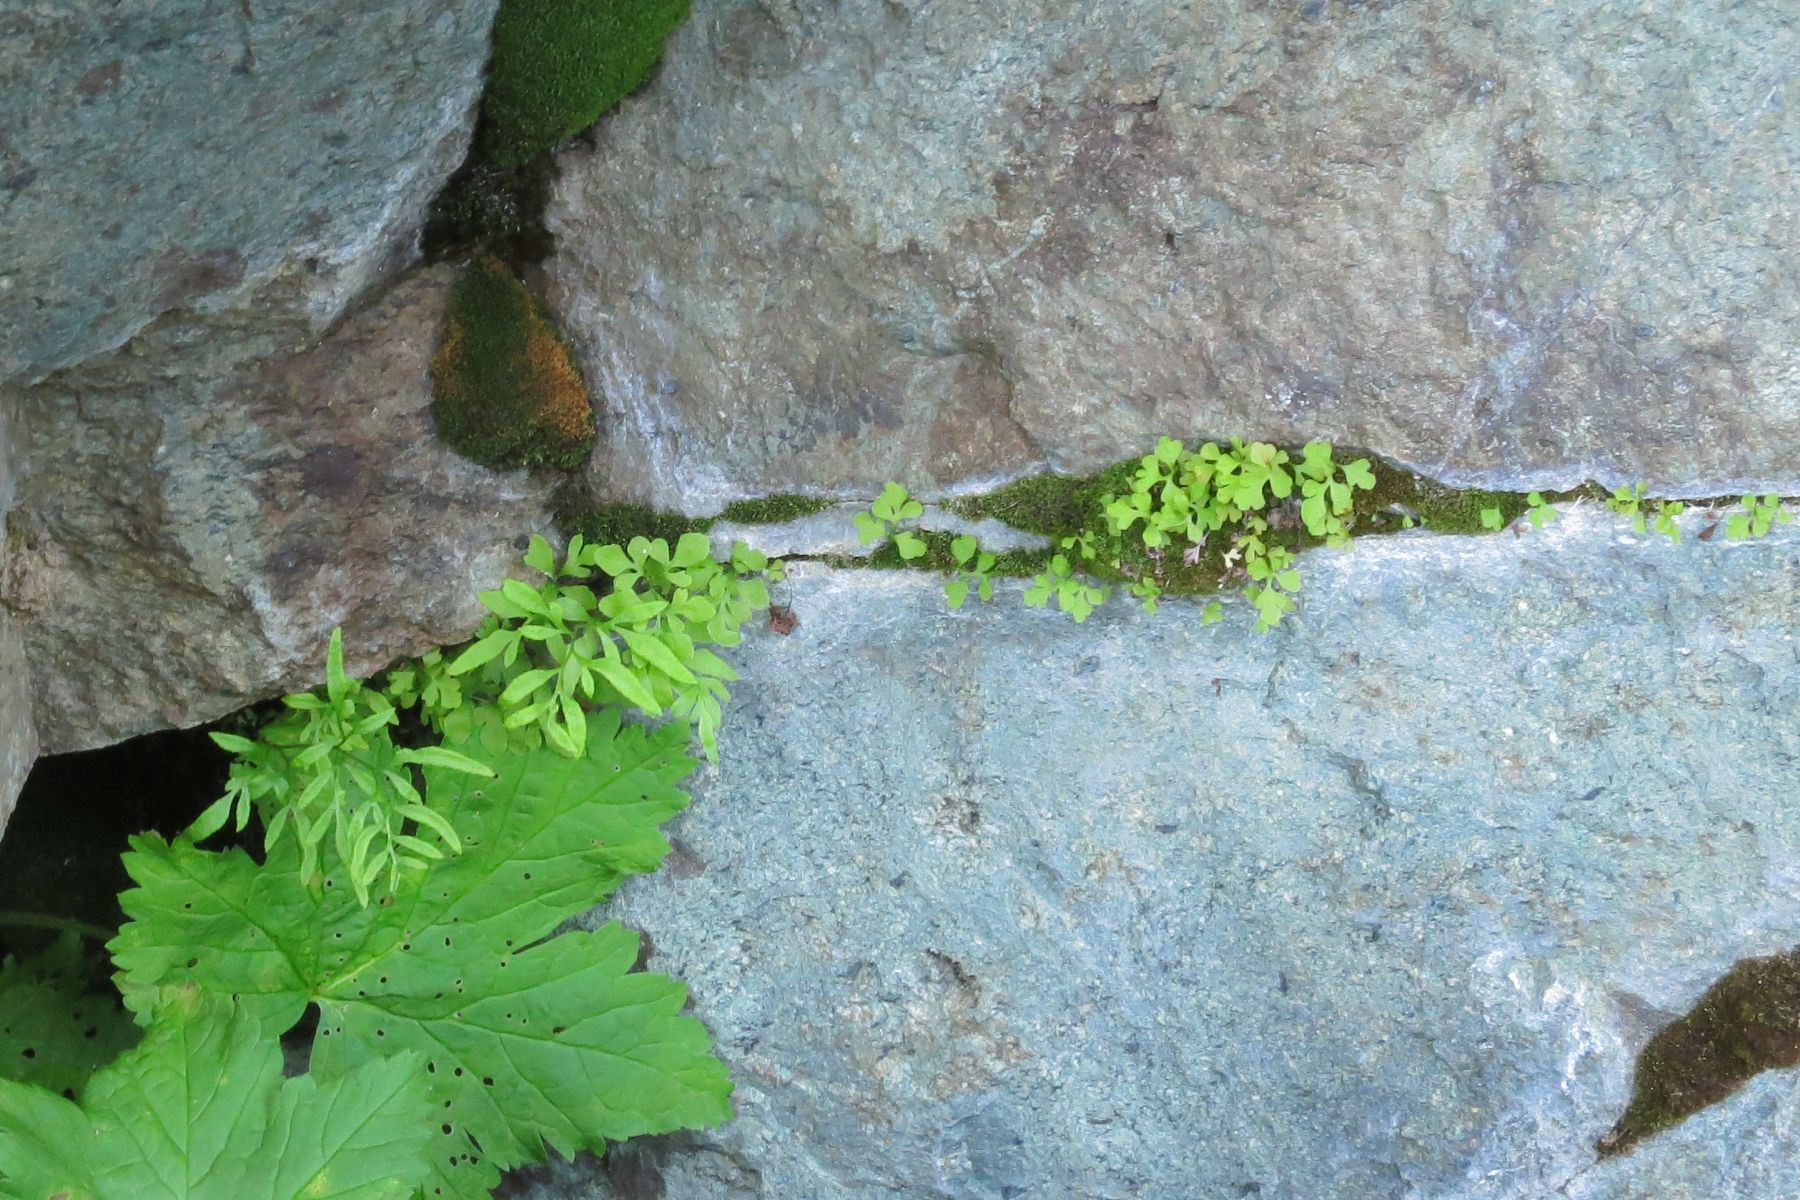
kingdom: Plantae
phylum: Tracheophyta
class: Polypodiopsida
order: Polypodiales
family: Pteridaceae
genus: Cryptogramma
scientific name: Cryptogramma stelleri
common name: Cliff-brake
